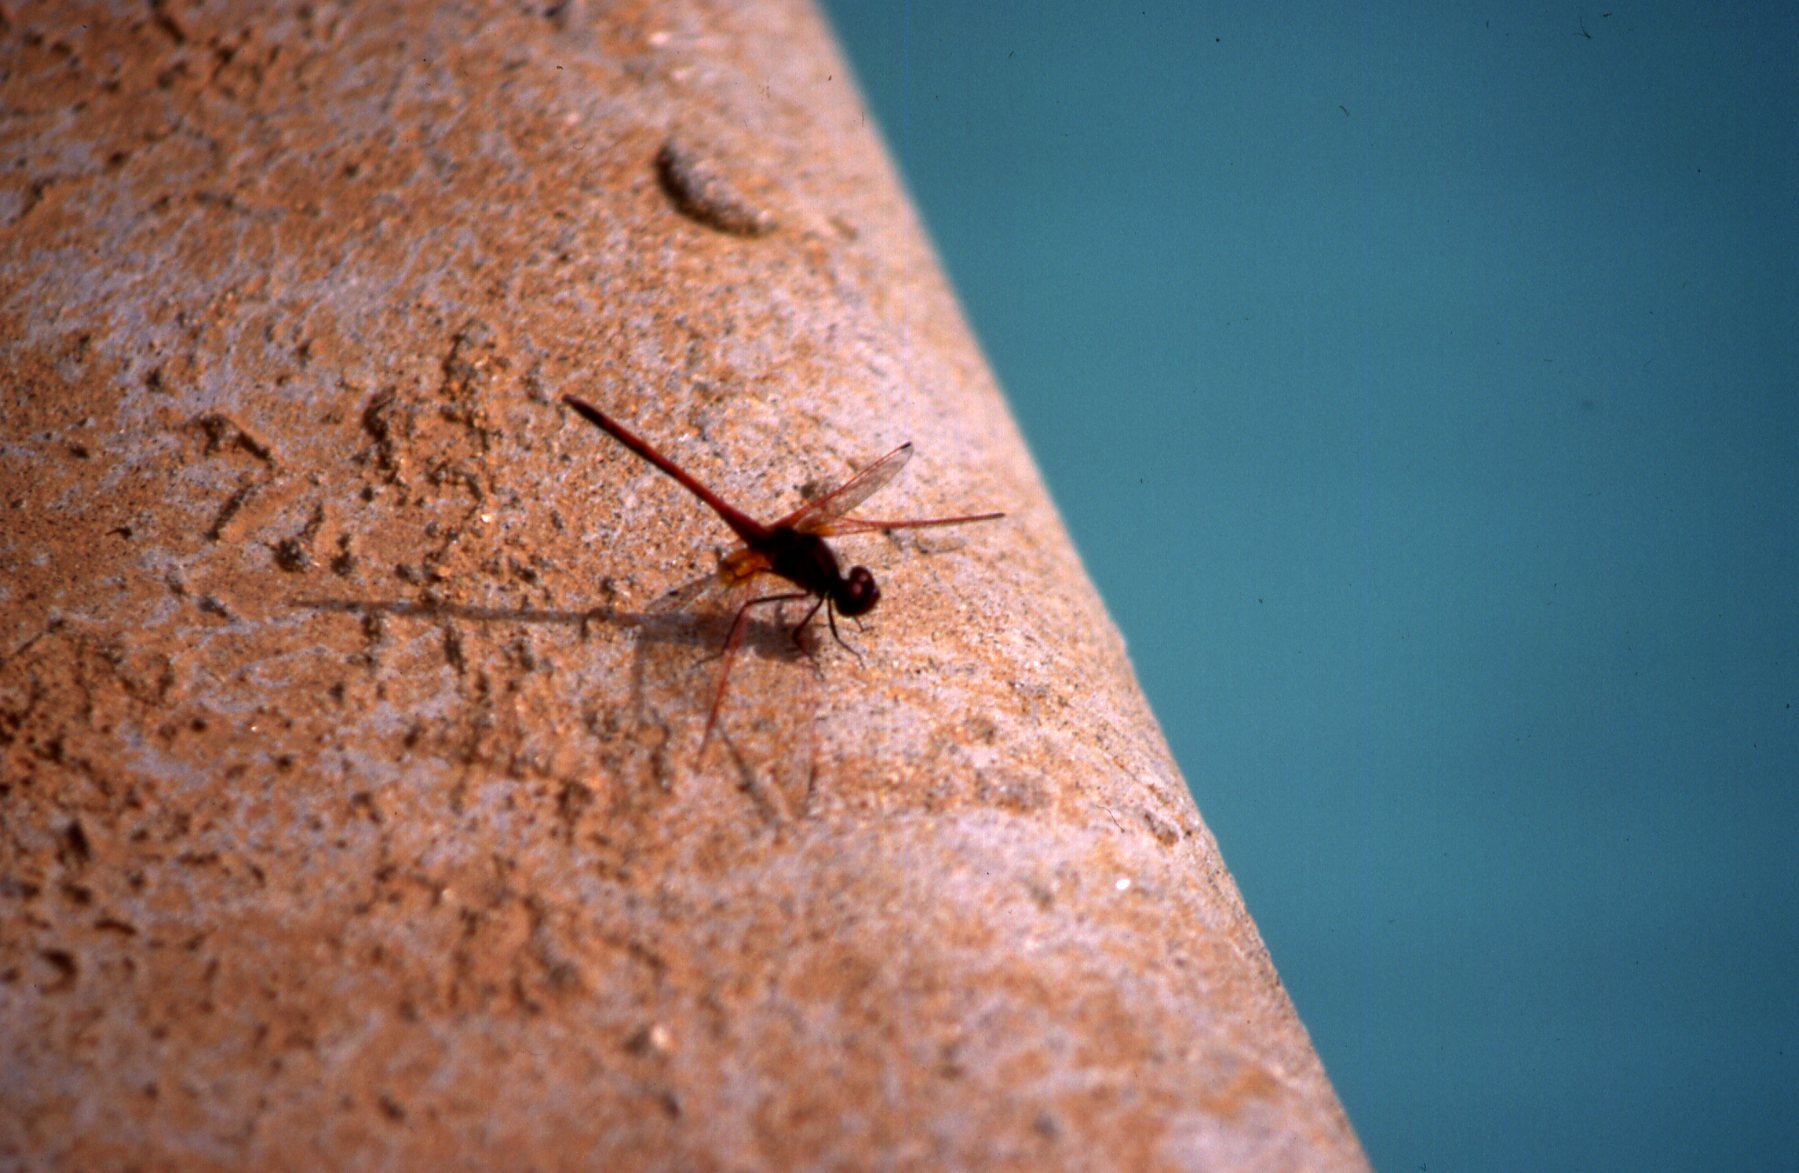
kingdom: Animalia
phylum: Arthropoda
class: Insecta
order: Odonata
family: Libellulidae
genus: Trithemis
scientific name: Trithemis arteriosa
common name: Red-veined dropwing
